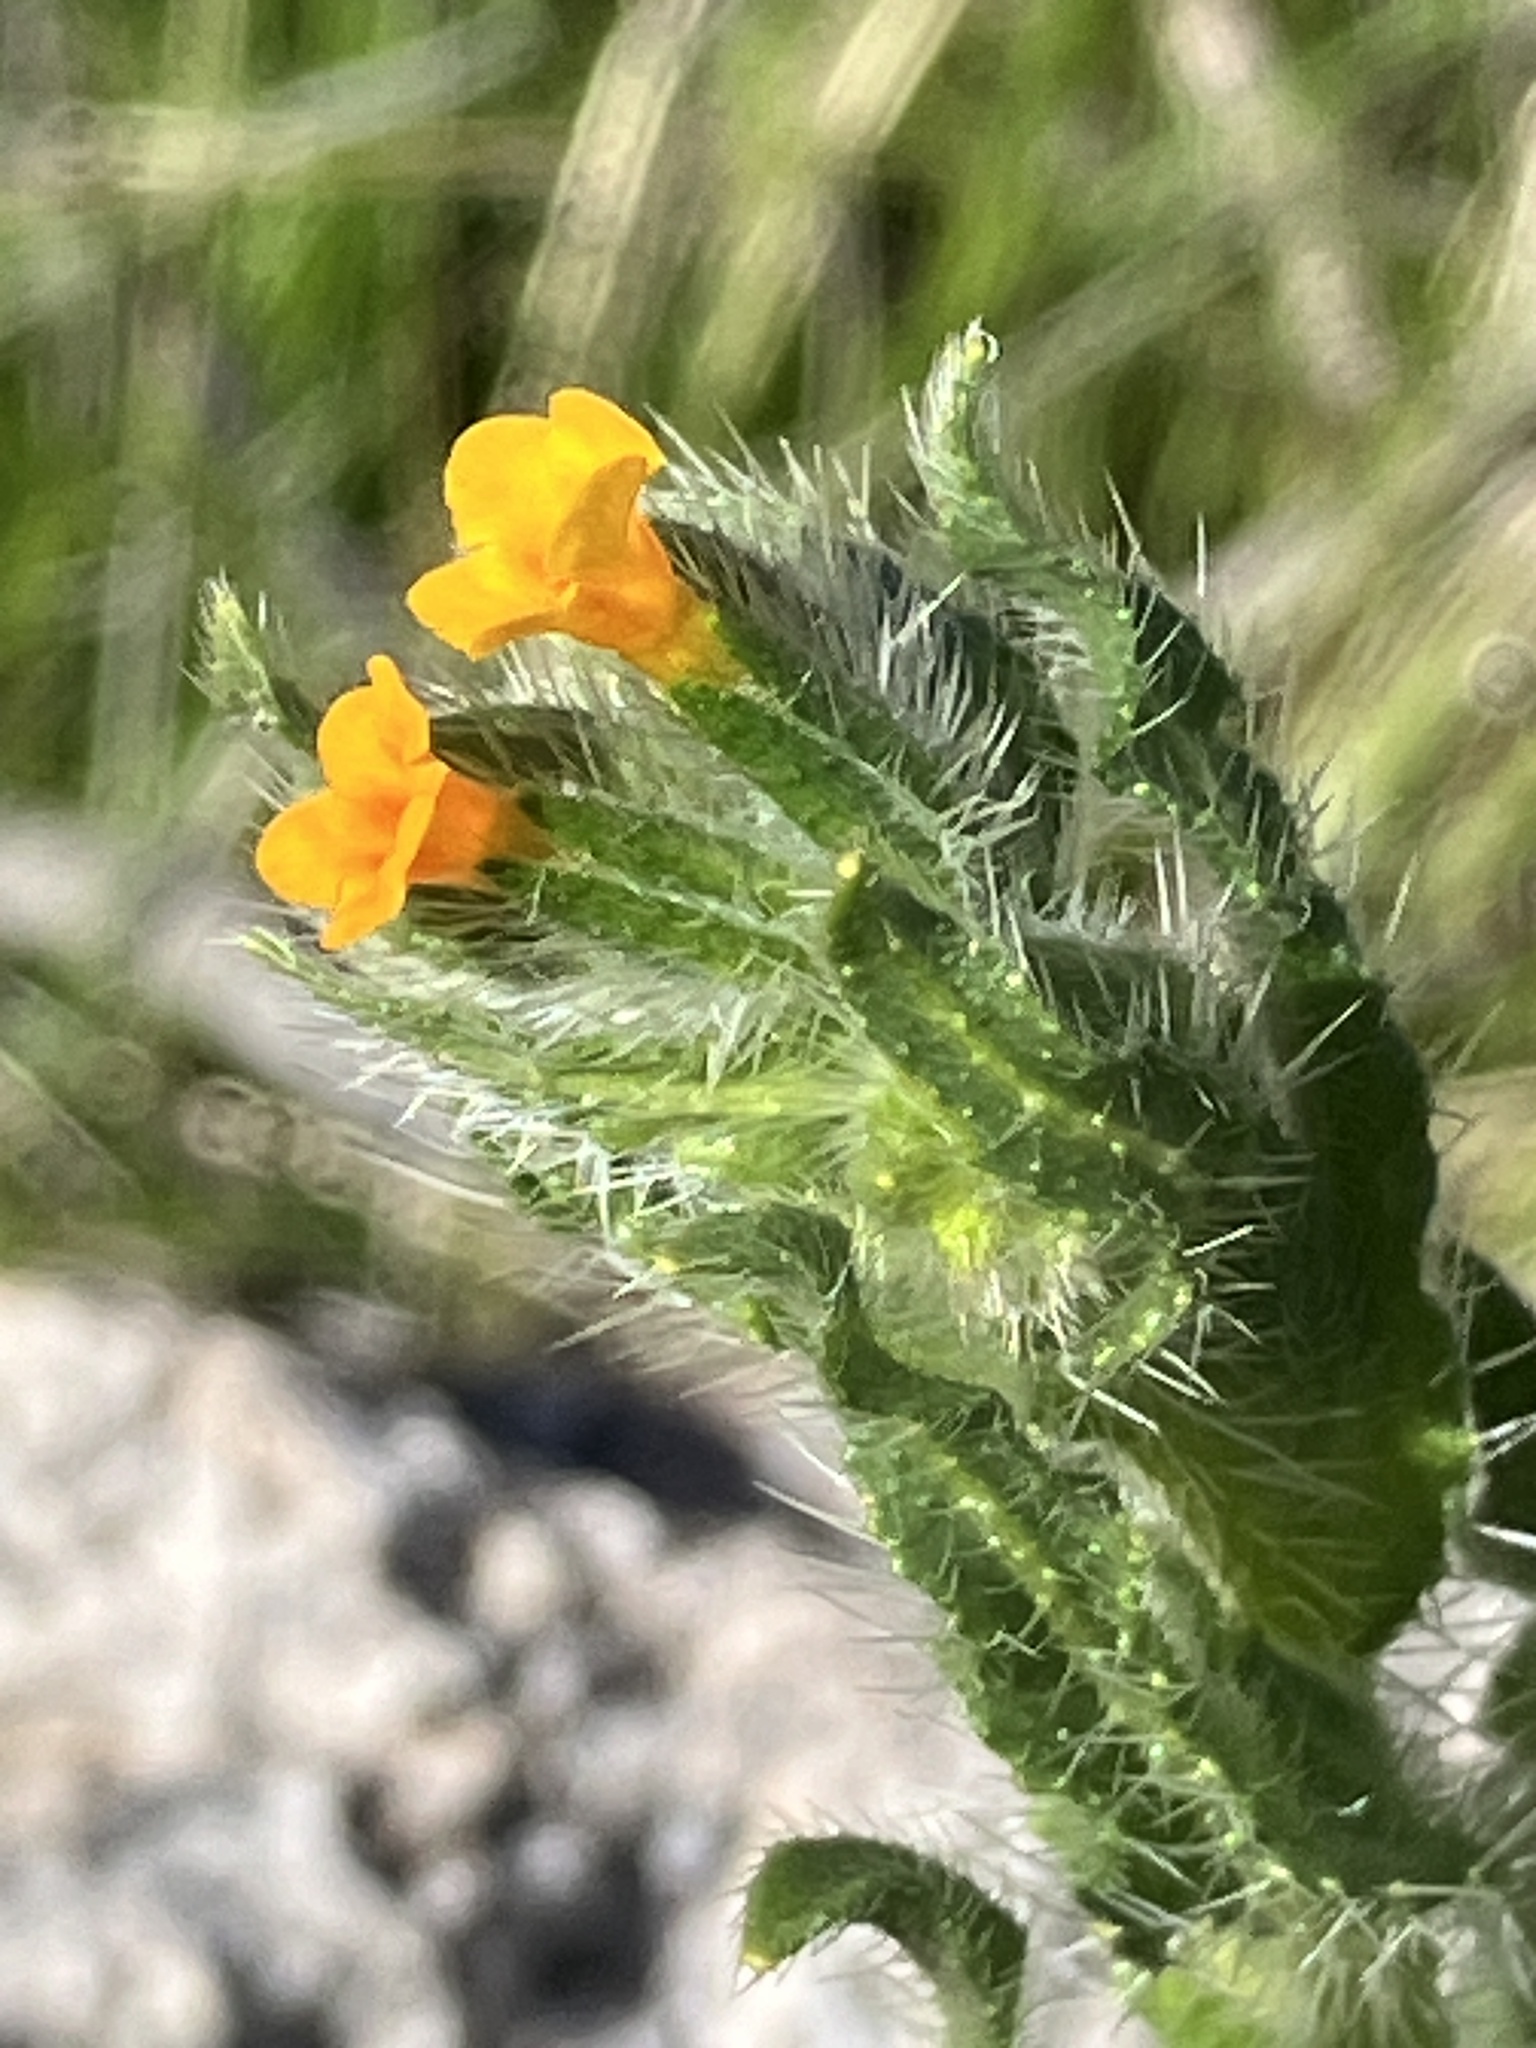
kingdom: Plantae
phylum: Tracheophyta
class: Magnoliopsida
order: Boraginales
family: Boraginaceae
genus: Amsinckia
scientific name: Amsinckia
